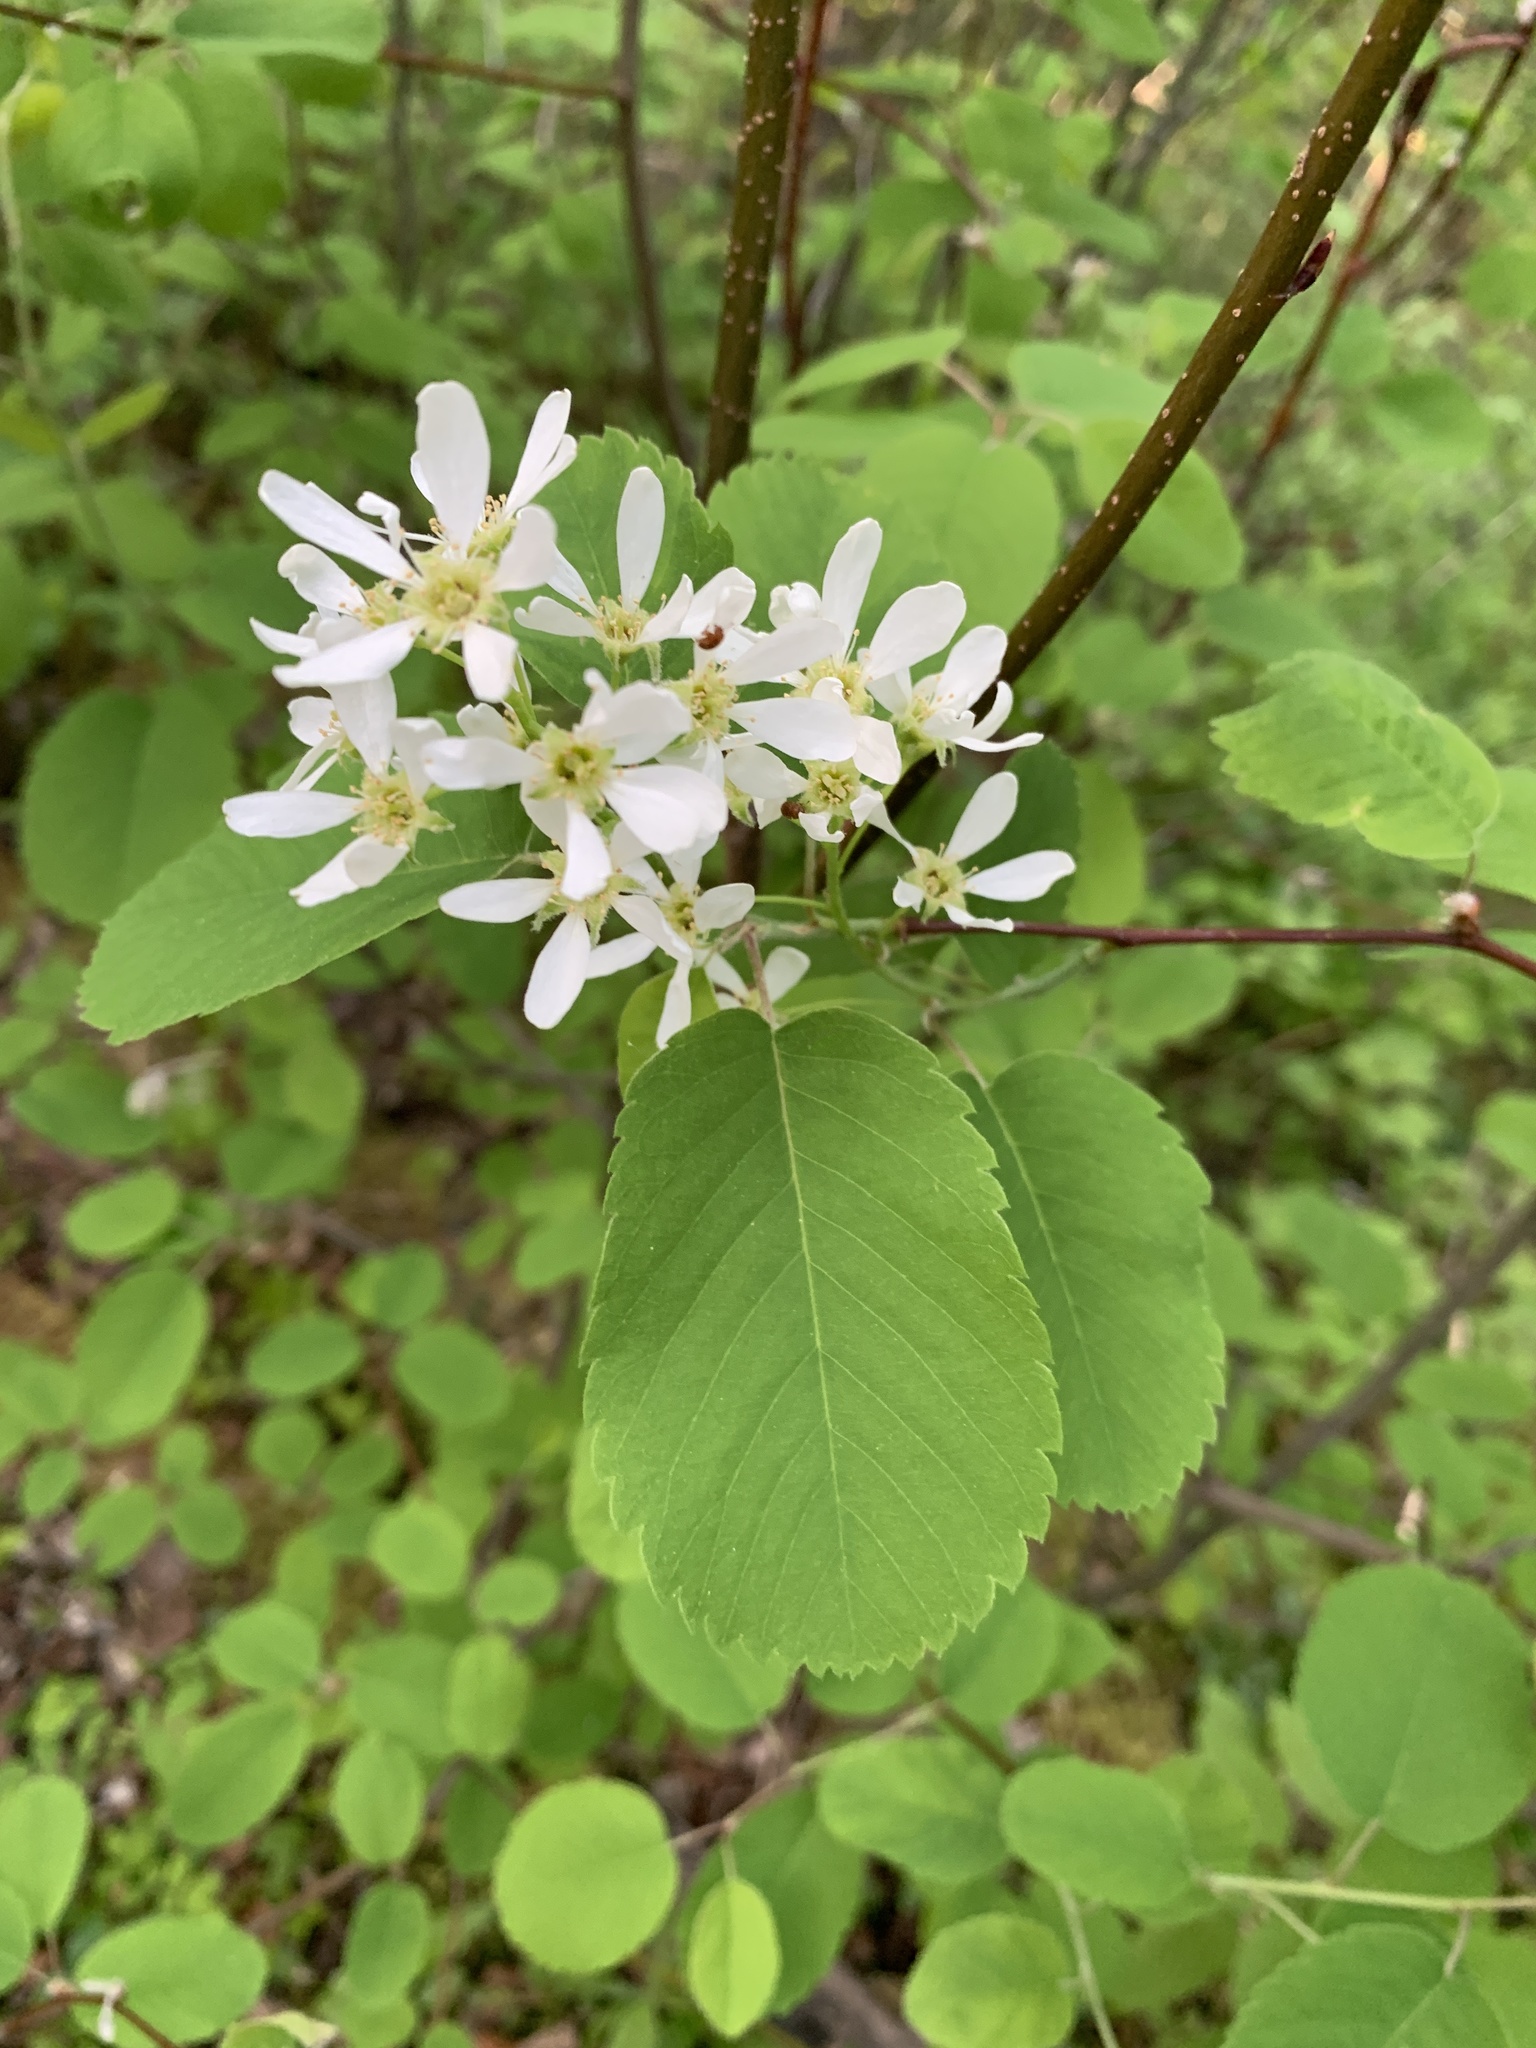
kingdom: Plantae
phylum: Tracheophyta
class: Magnoliopsida
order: Rosales
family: Rosaceae
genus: Amelanchier
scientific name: Amelanchier alnifolia
